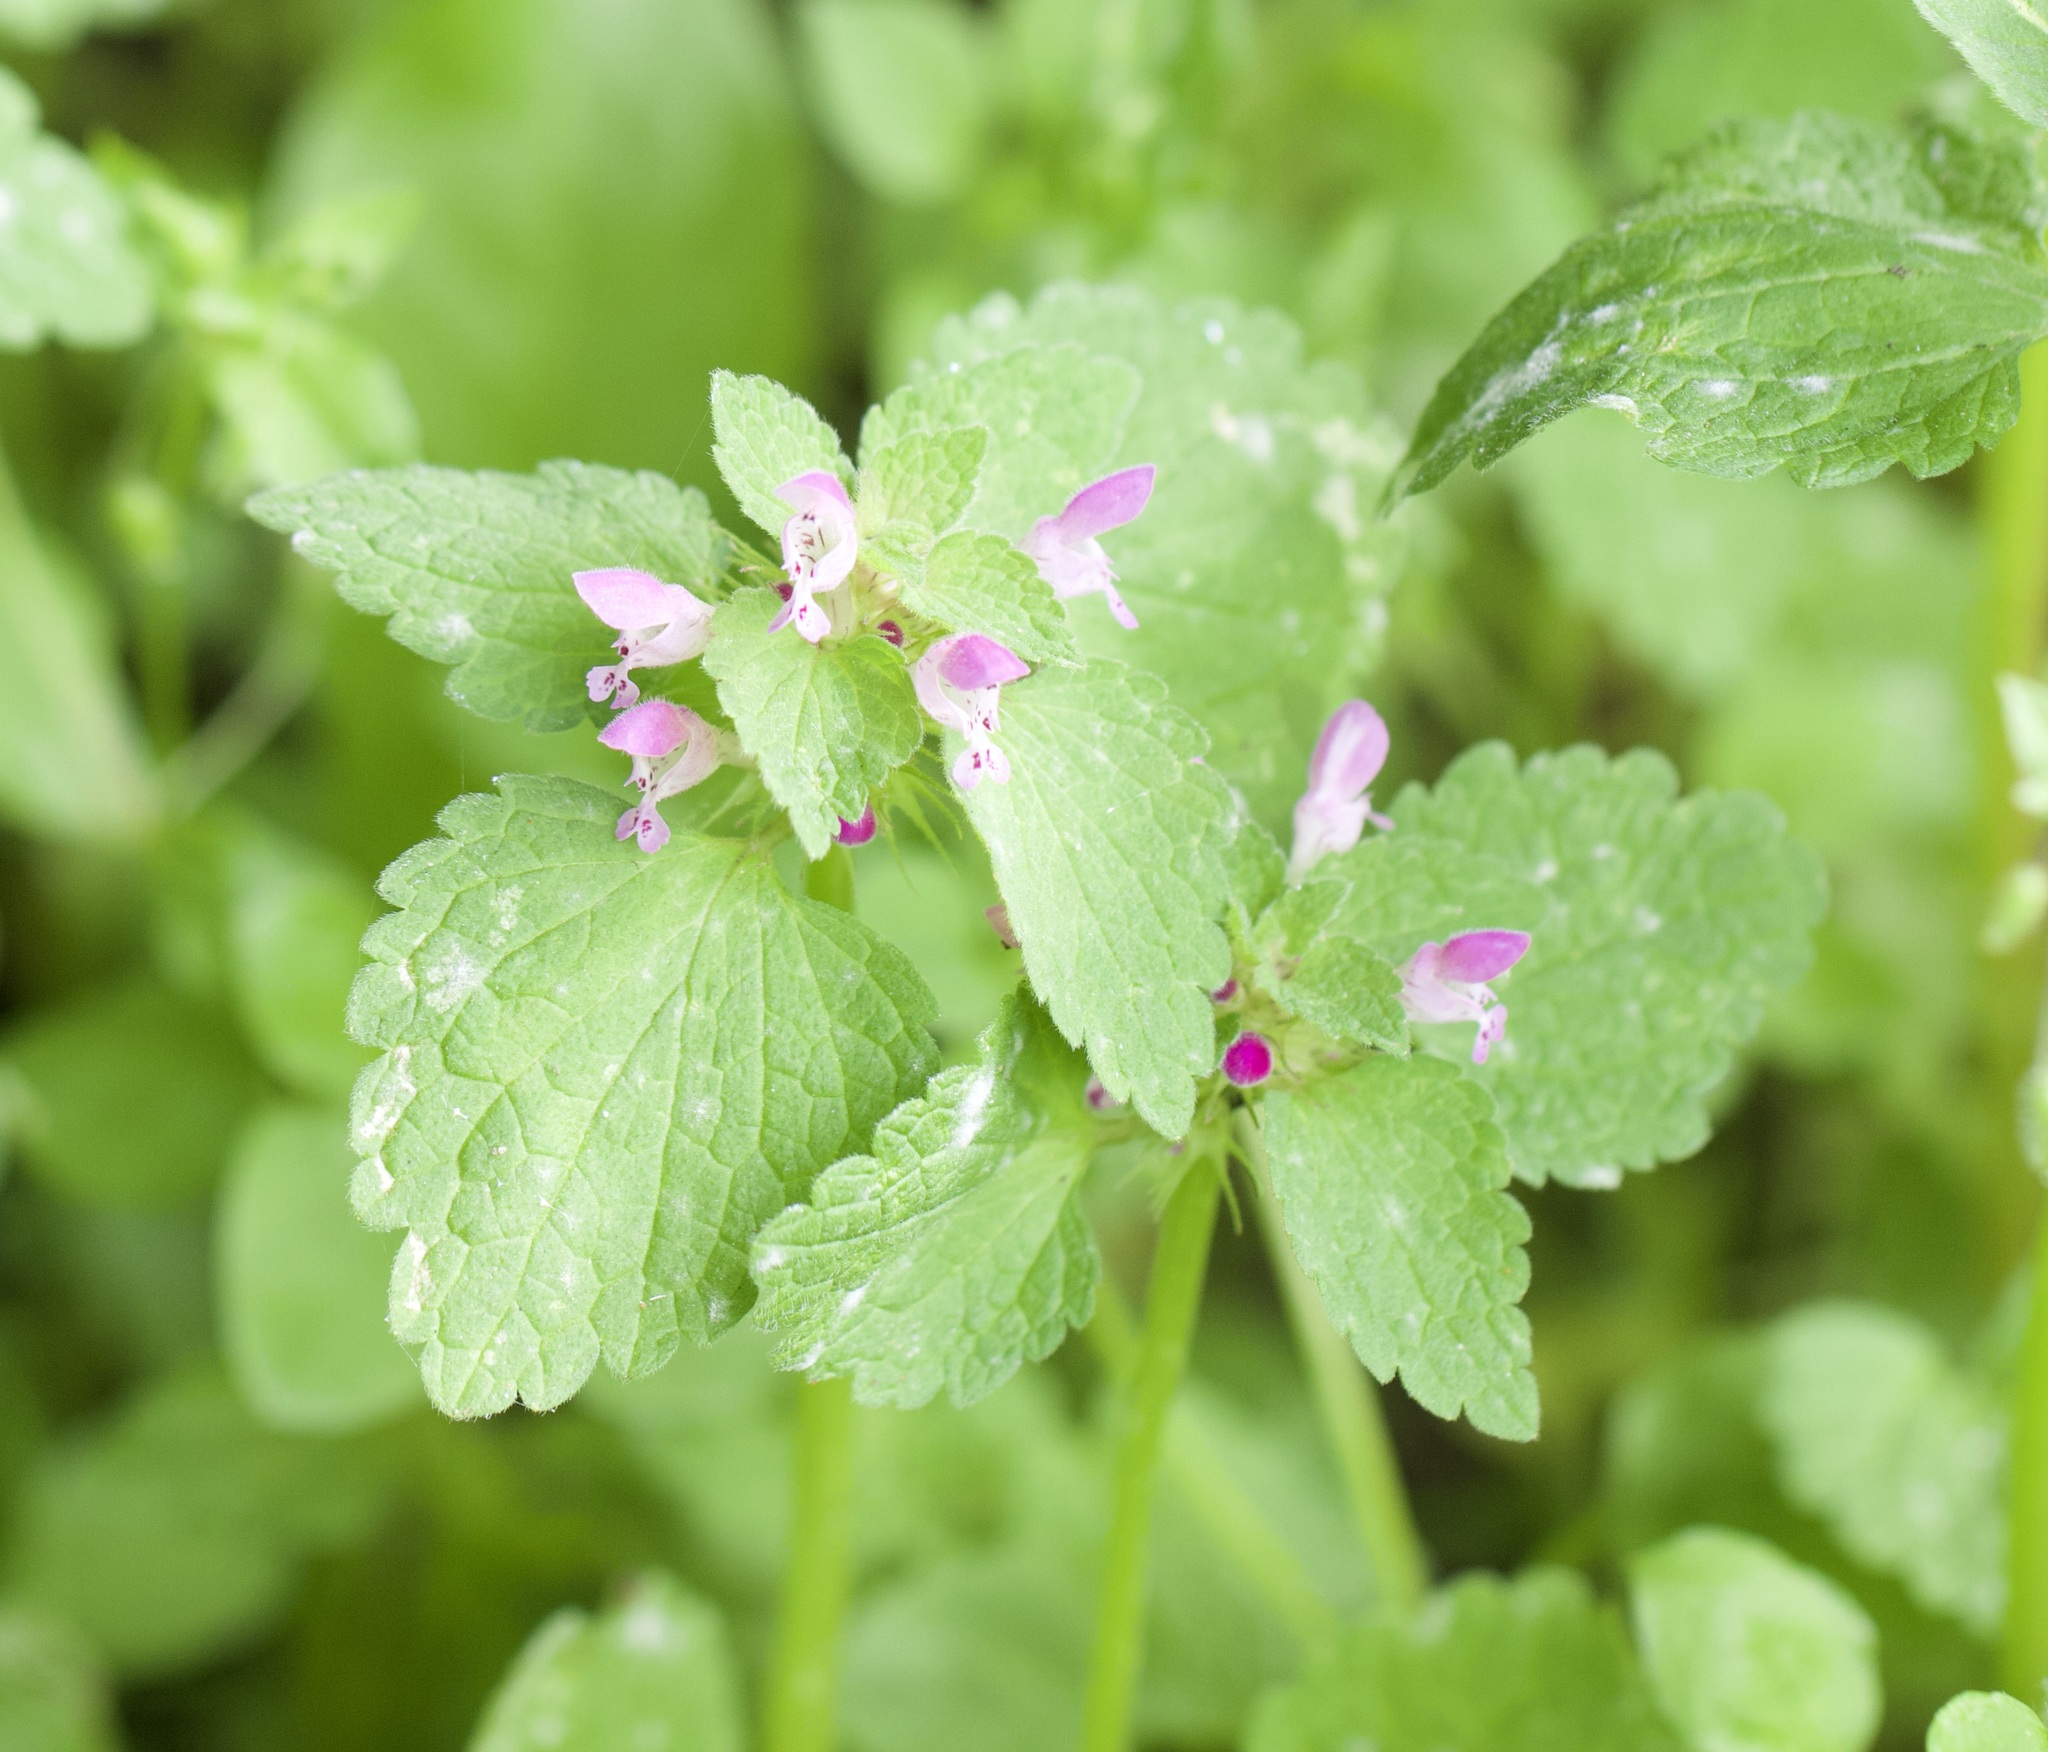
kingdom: Plantae
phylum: Tracheophyta
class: Magnoliopsida
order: Lamiales
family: Lamiaceae
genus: Lamium
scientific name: Lamium purpureum
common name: Red dead-nettle
